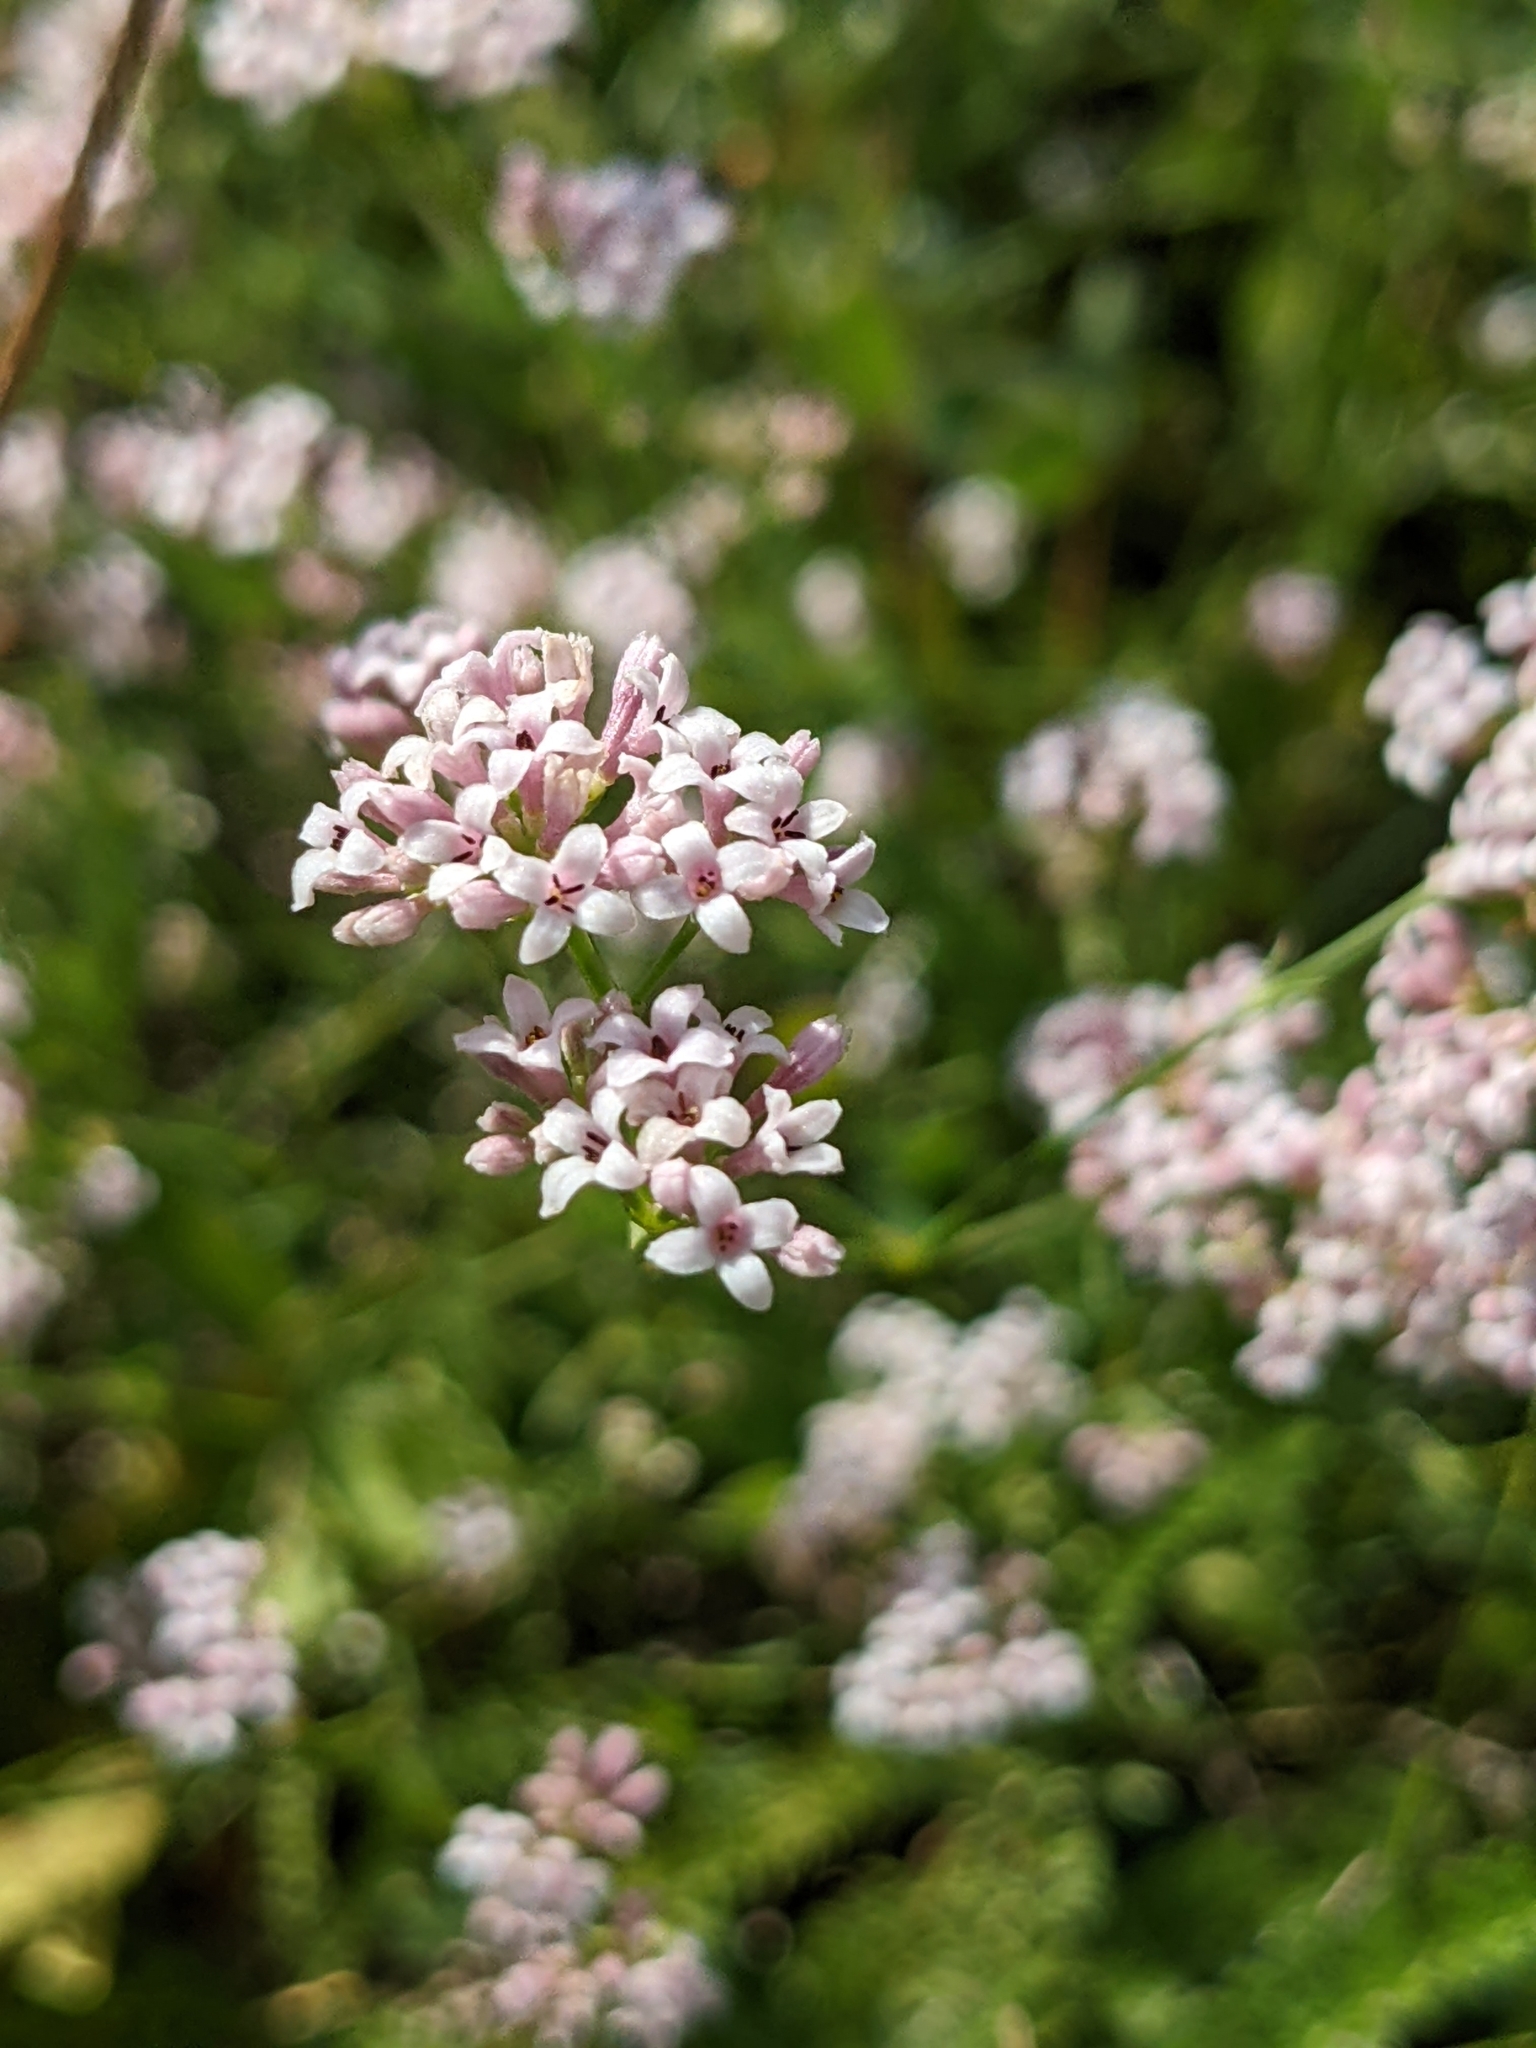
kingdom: Plantae
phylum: Tracheophyta
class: Magnoliopsida
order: Gentianales
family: Rubiaceae
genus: Cynanchica
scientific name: Cynanchica pyrenaica
